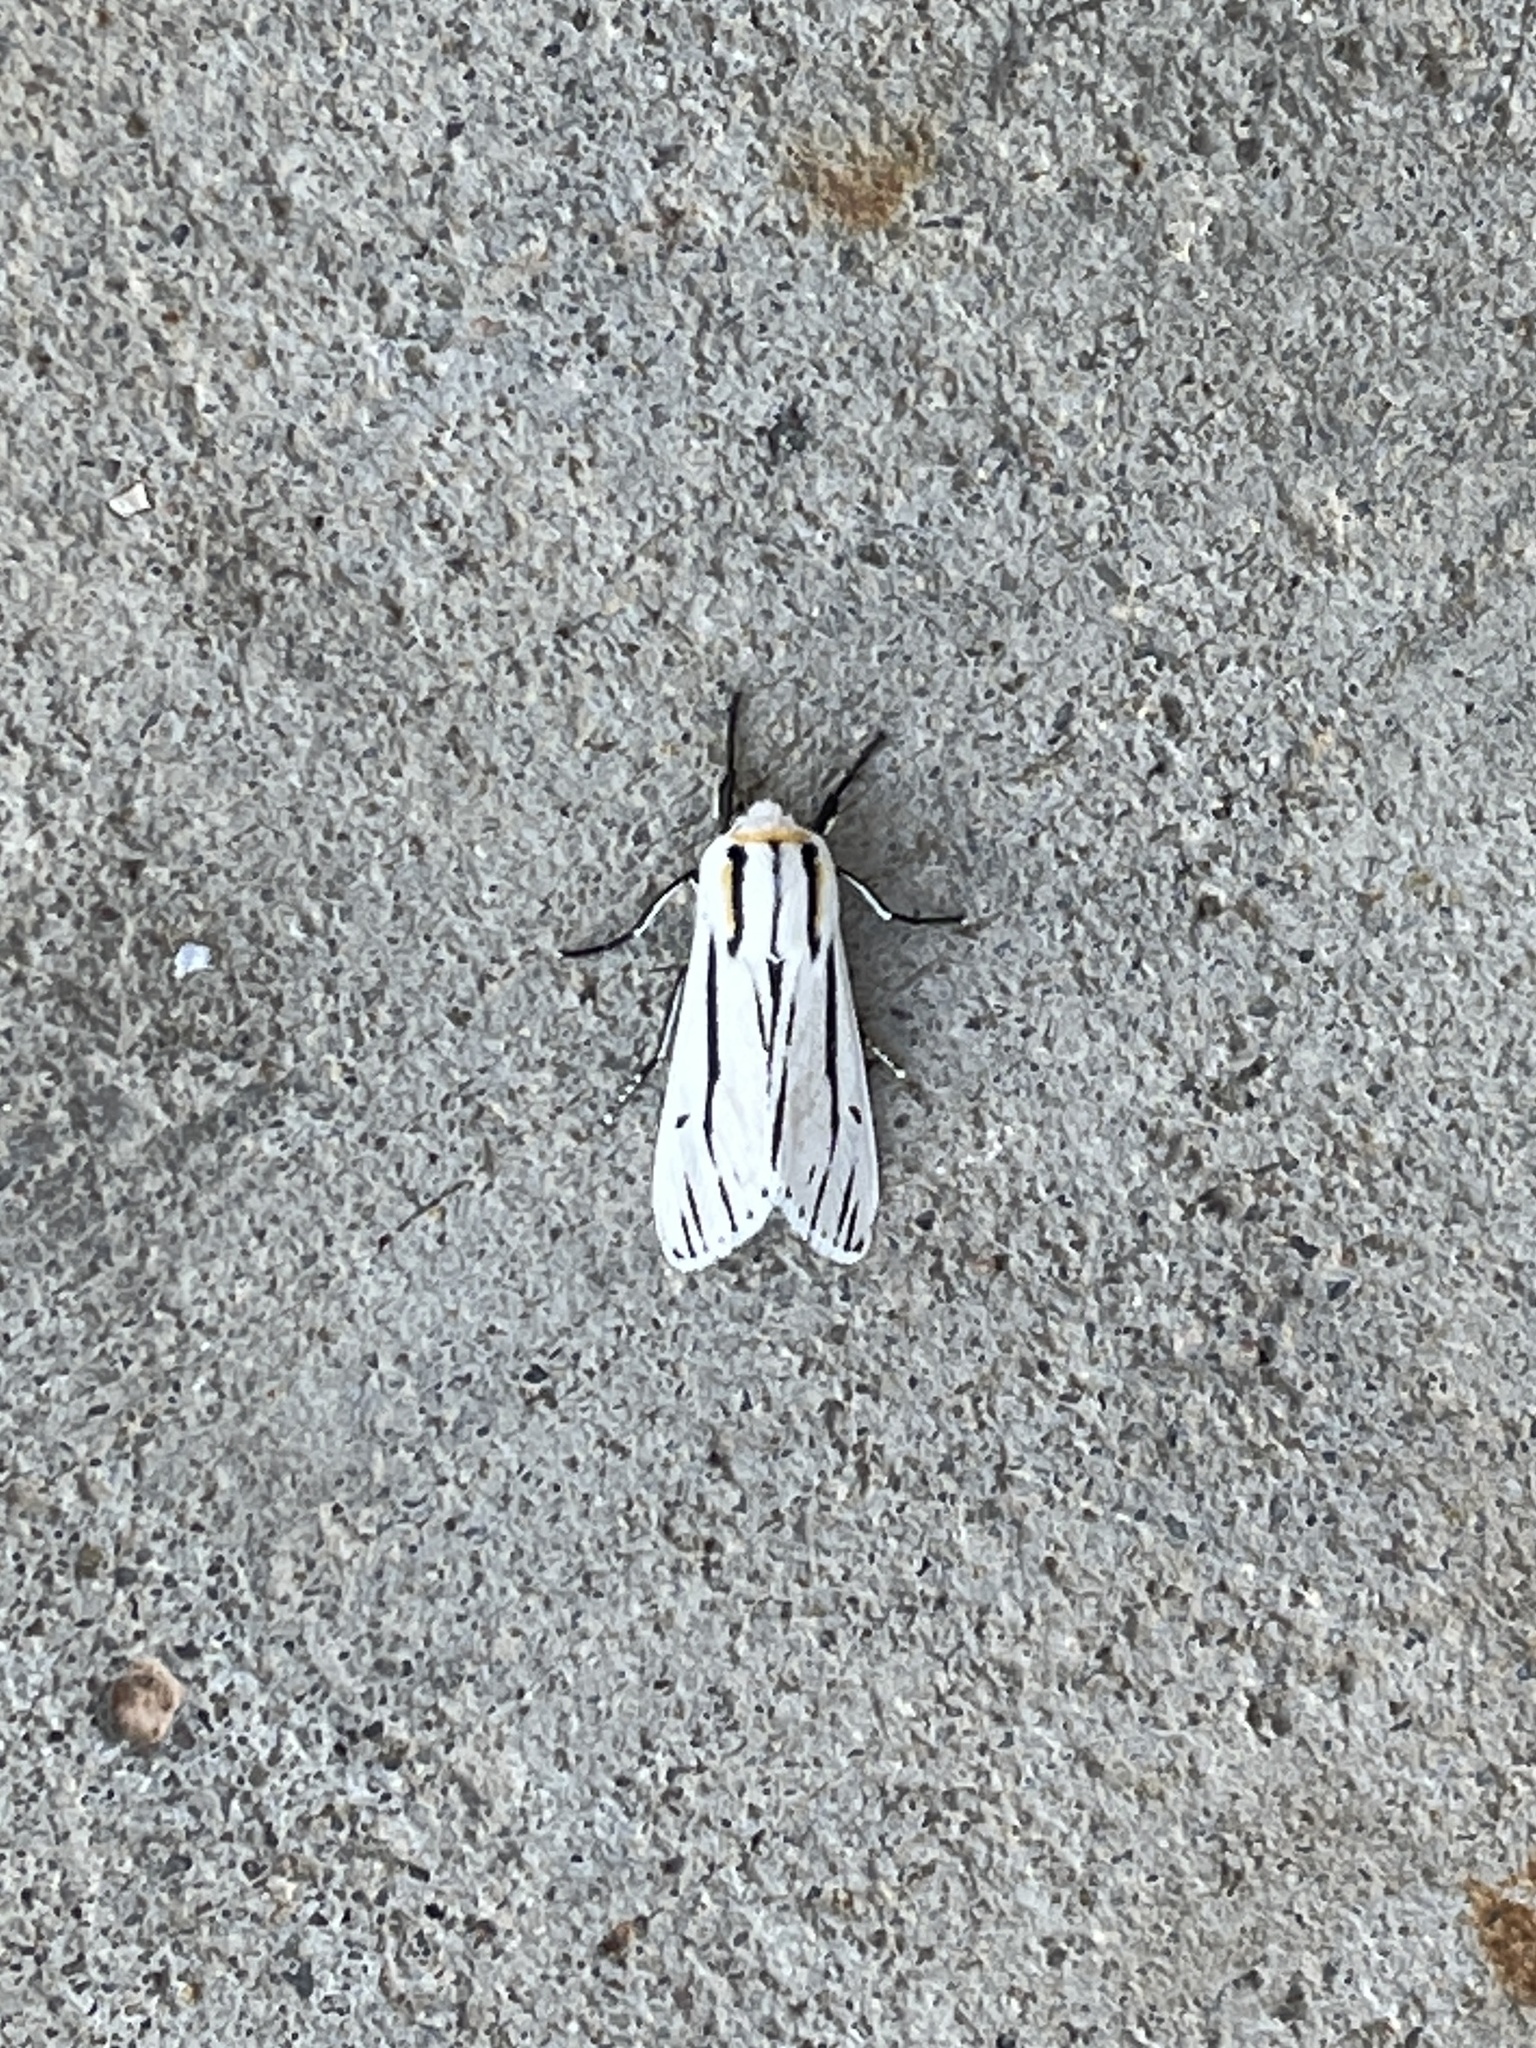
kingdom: Animalia
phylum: Arthropoda
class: Insecta
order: Lepidoptera
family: Erebidae
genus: Ectypia
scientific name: Ectypia clio
